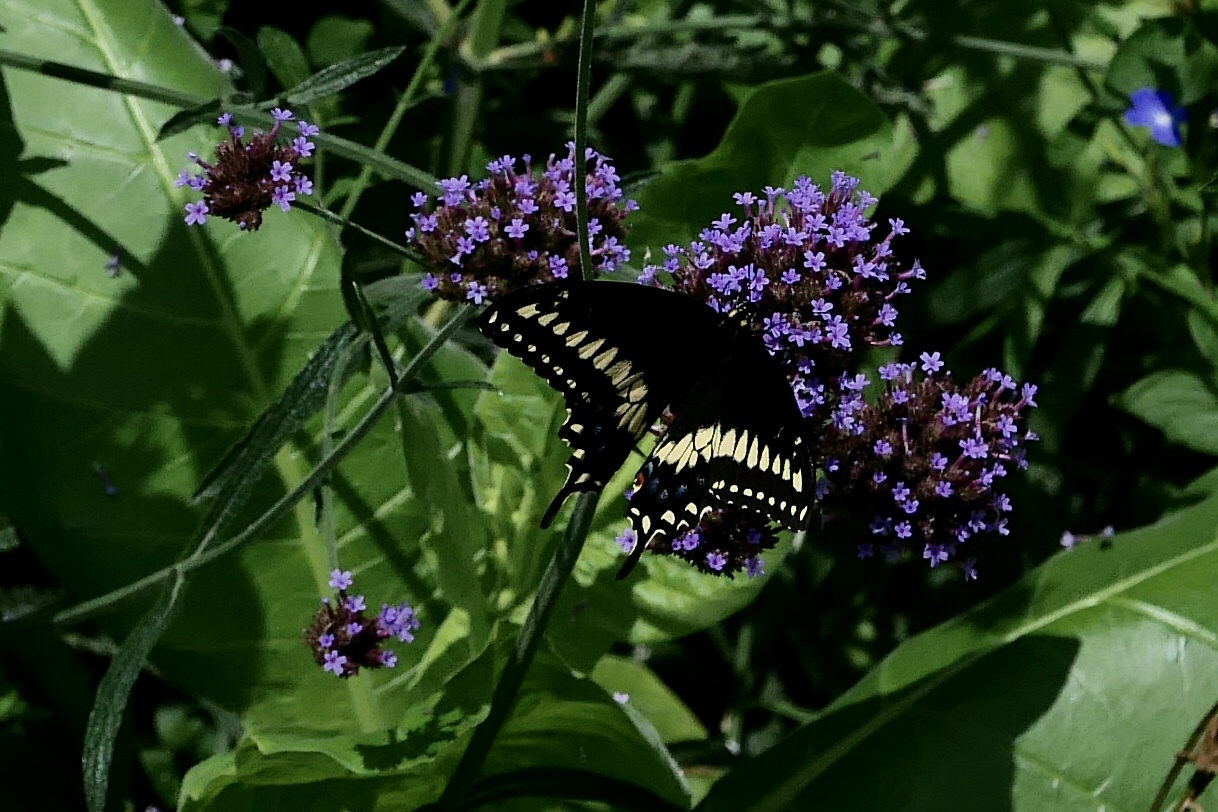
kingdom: Animalia
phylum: Arthropoda
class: Insecta
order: Lepidoptera
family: Papilionidae
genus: Papilio
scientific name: Papilio polyxenes
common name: Black swallowtail
